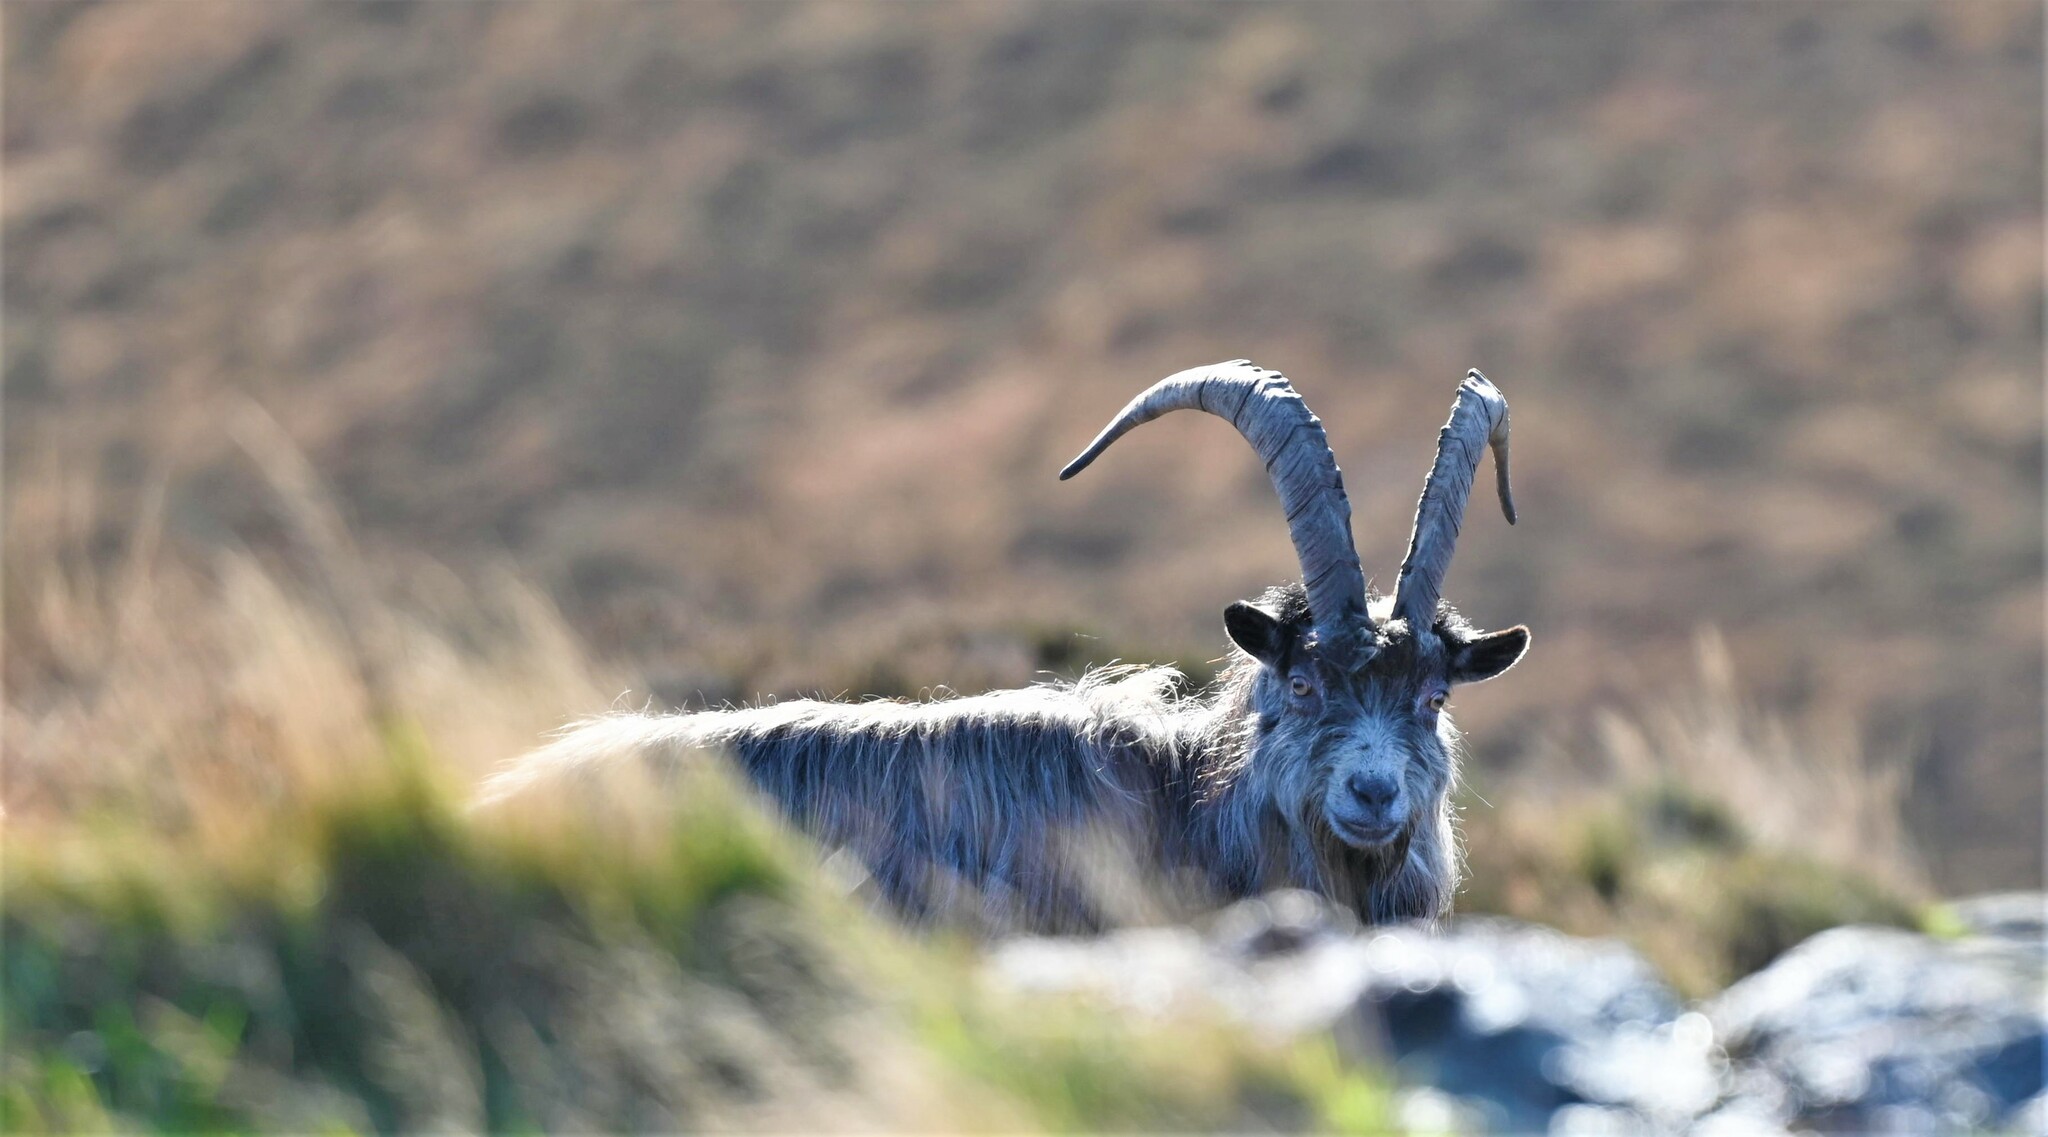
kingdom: Animalia
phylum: Chordata
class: Mammalia
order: Artiodactyla
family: Bovidae
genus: Capra
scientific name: Capra hircus
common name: Domestic goat
